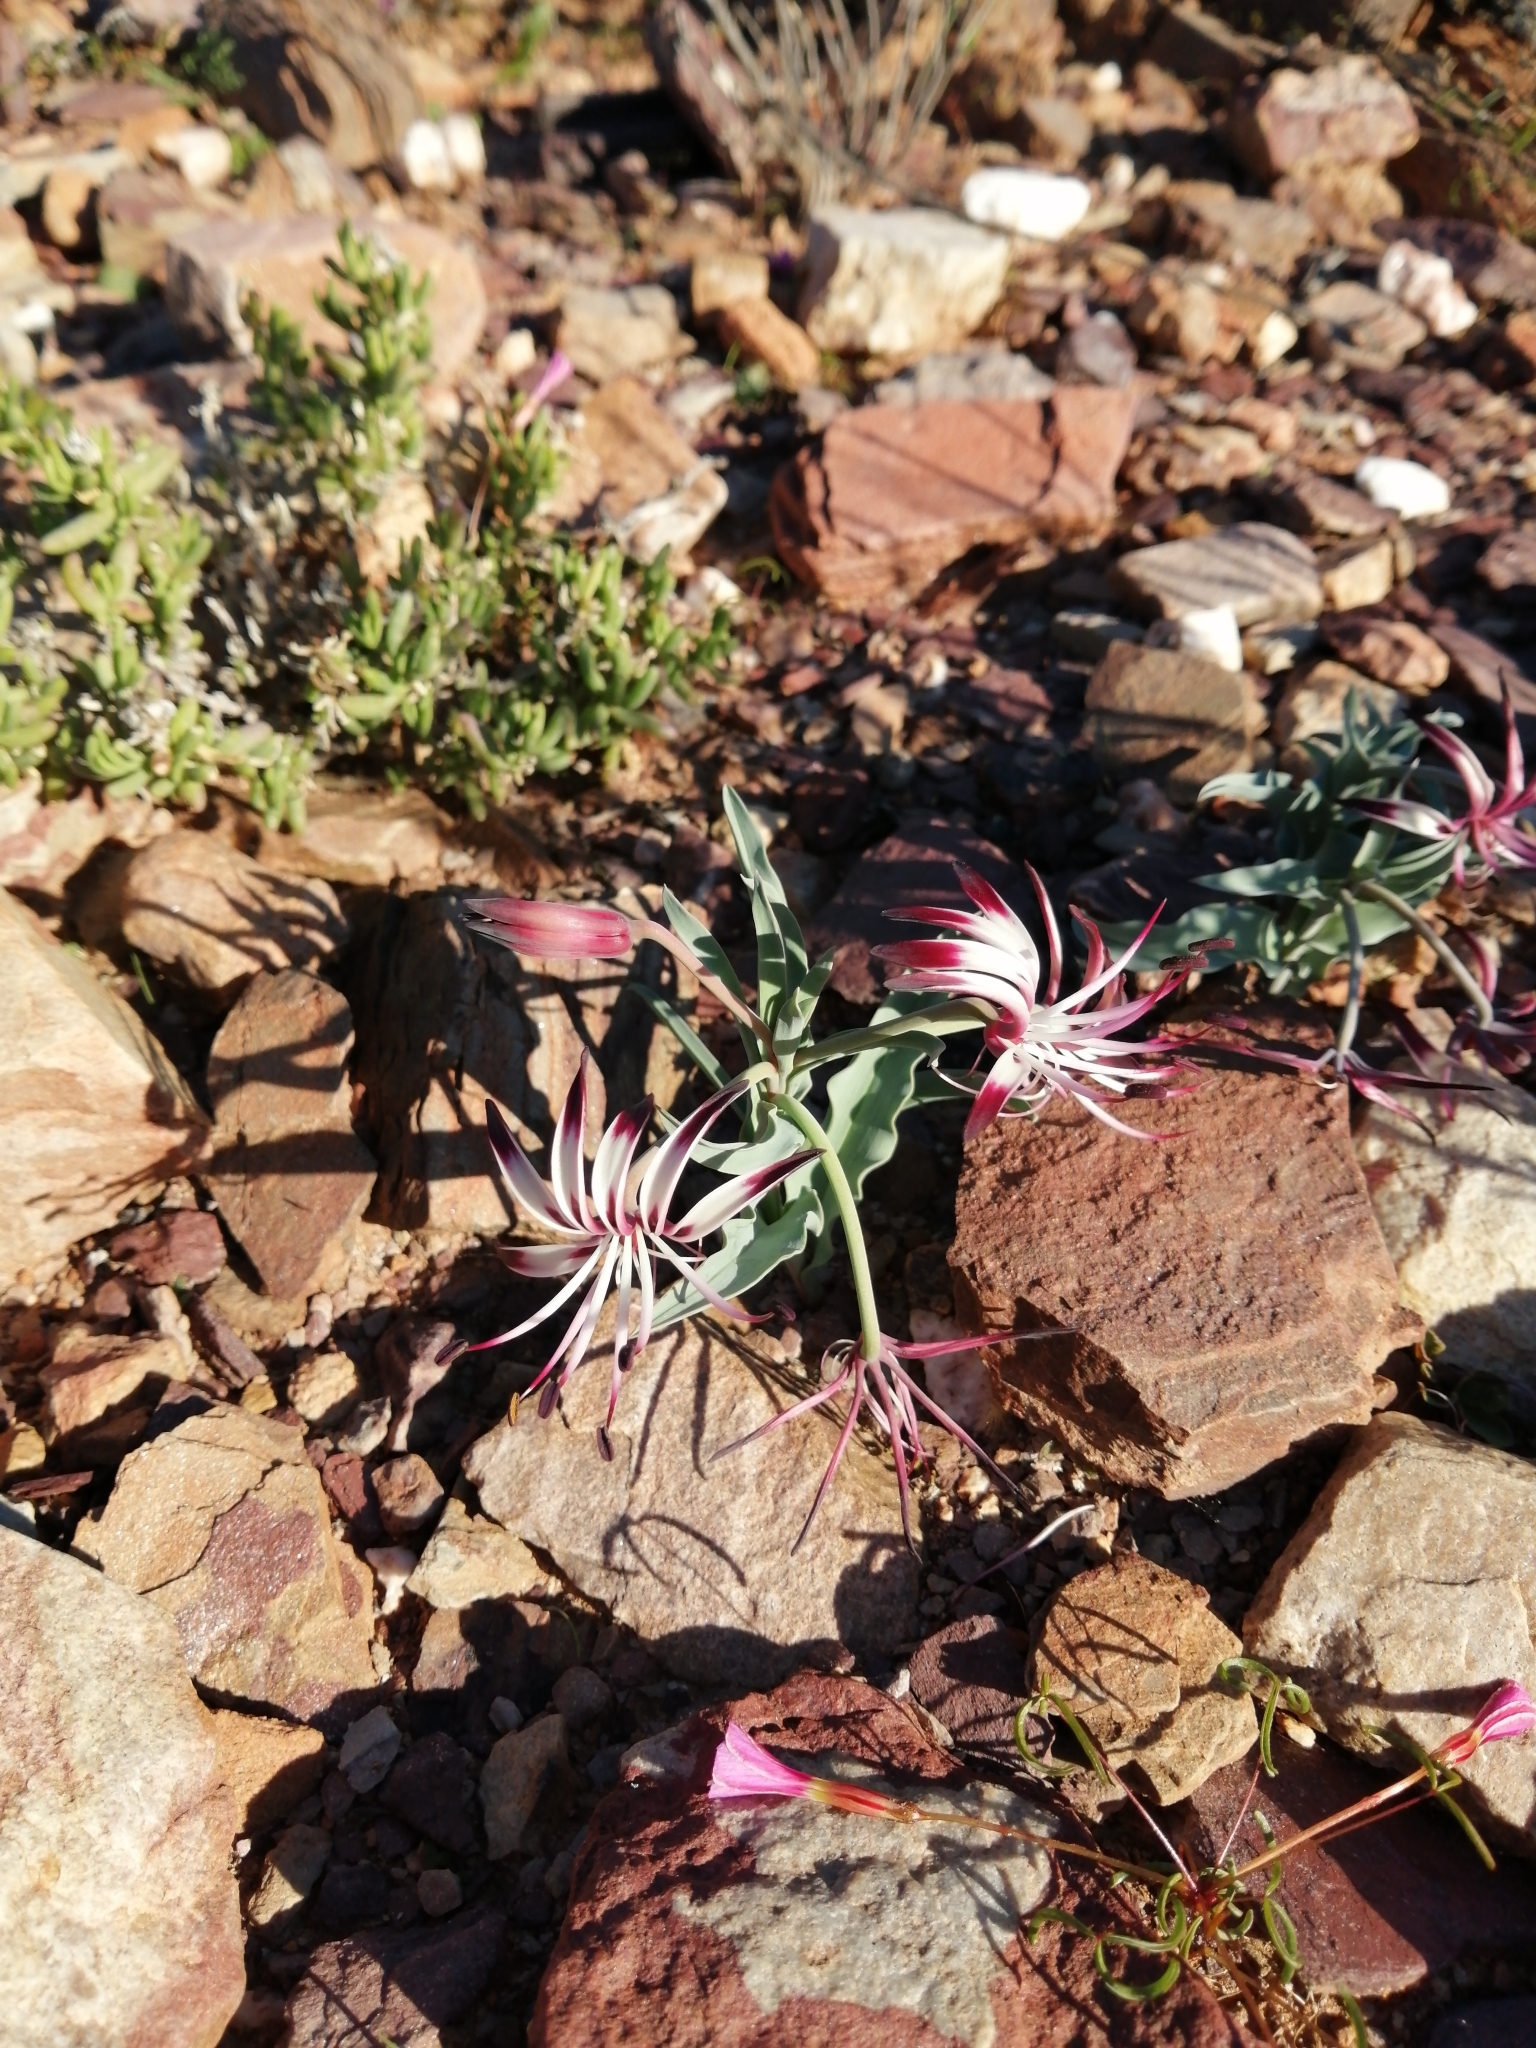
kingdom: Plantae
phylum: Tracheophyta
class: Liliopsida
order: Liliales
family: Colchicaceae
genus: Ornithoglossum
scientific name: Ornithoglossum undulatum
